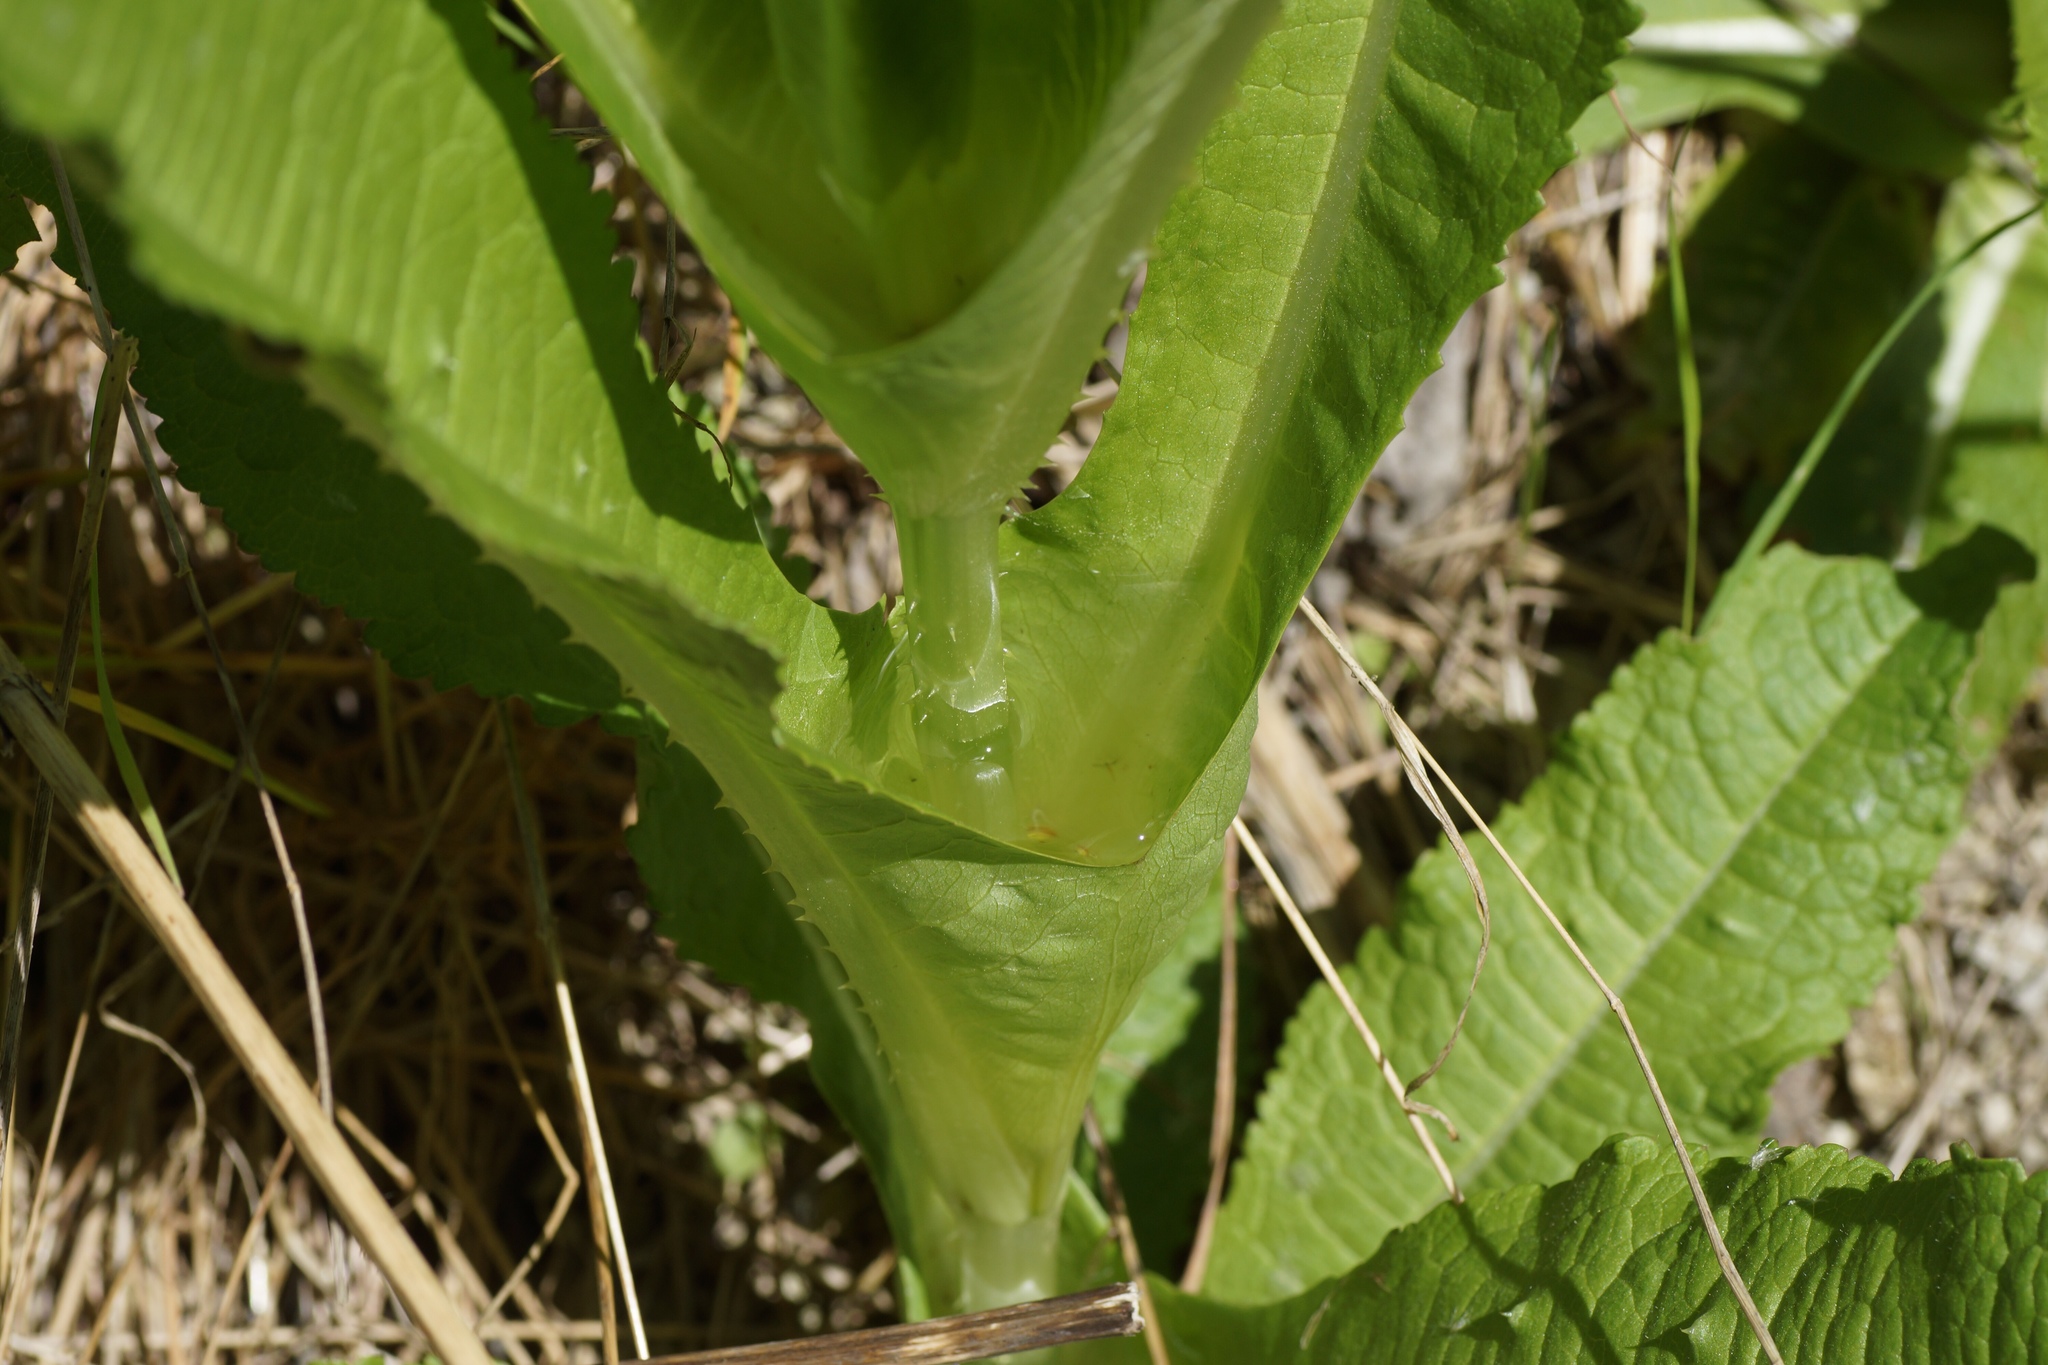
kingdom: Plantae
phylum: Tracheophyta
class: Magnoliopsida
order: Dipsacales
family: Caprifoliaceae
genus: Dipsacus
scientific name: Dipsacus fullonum
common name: Teasel
